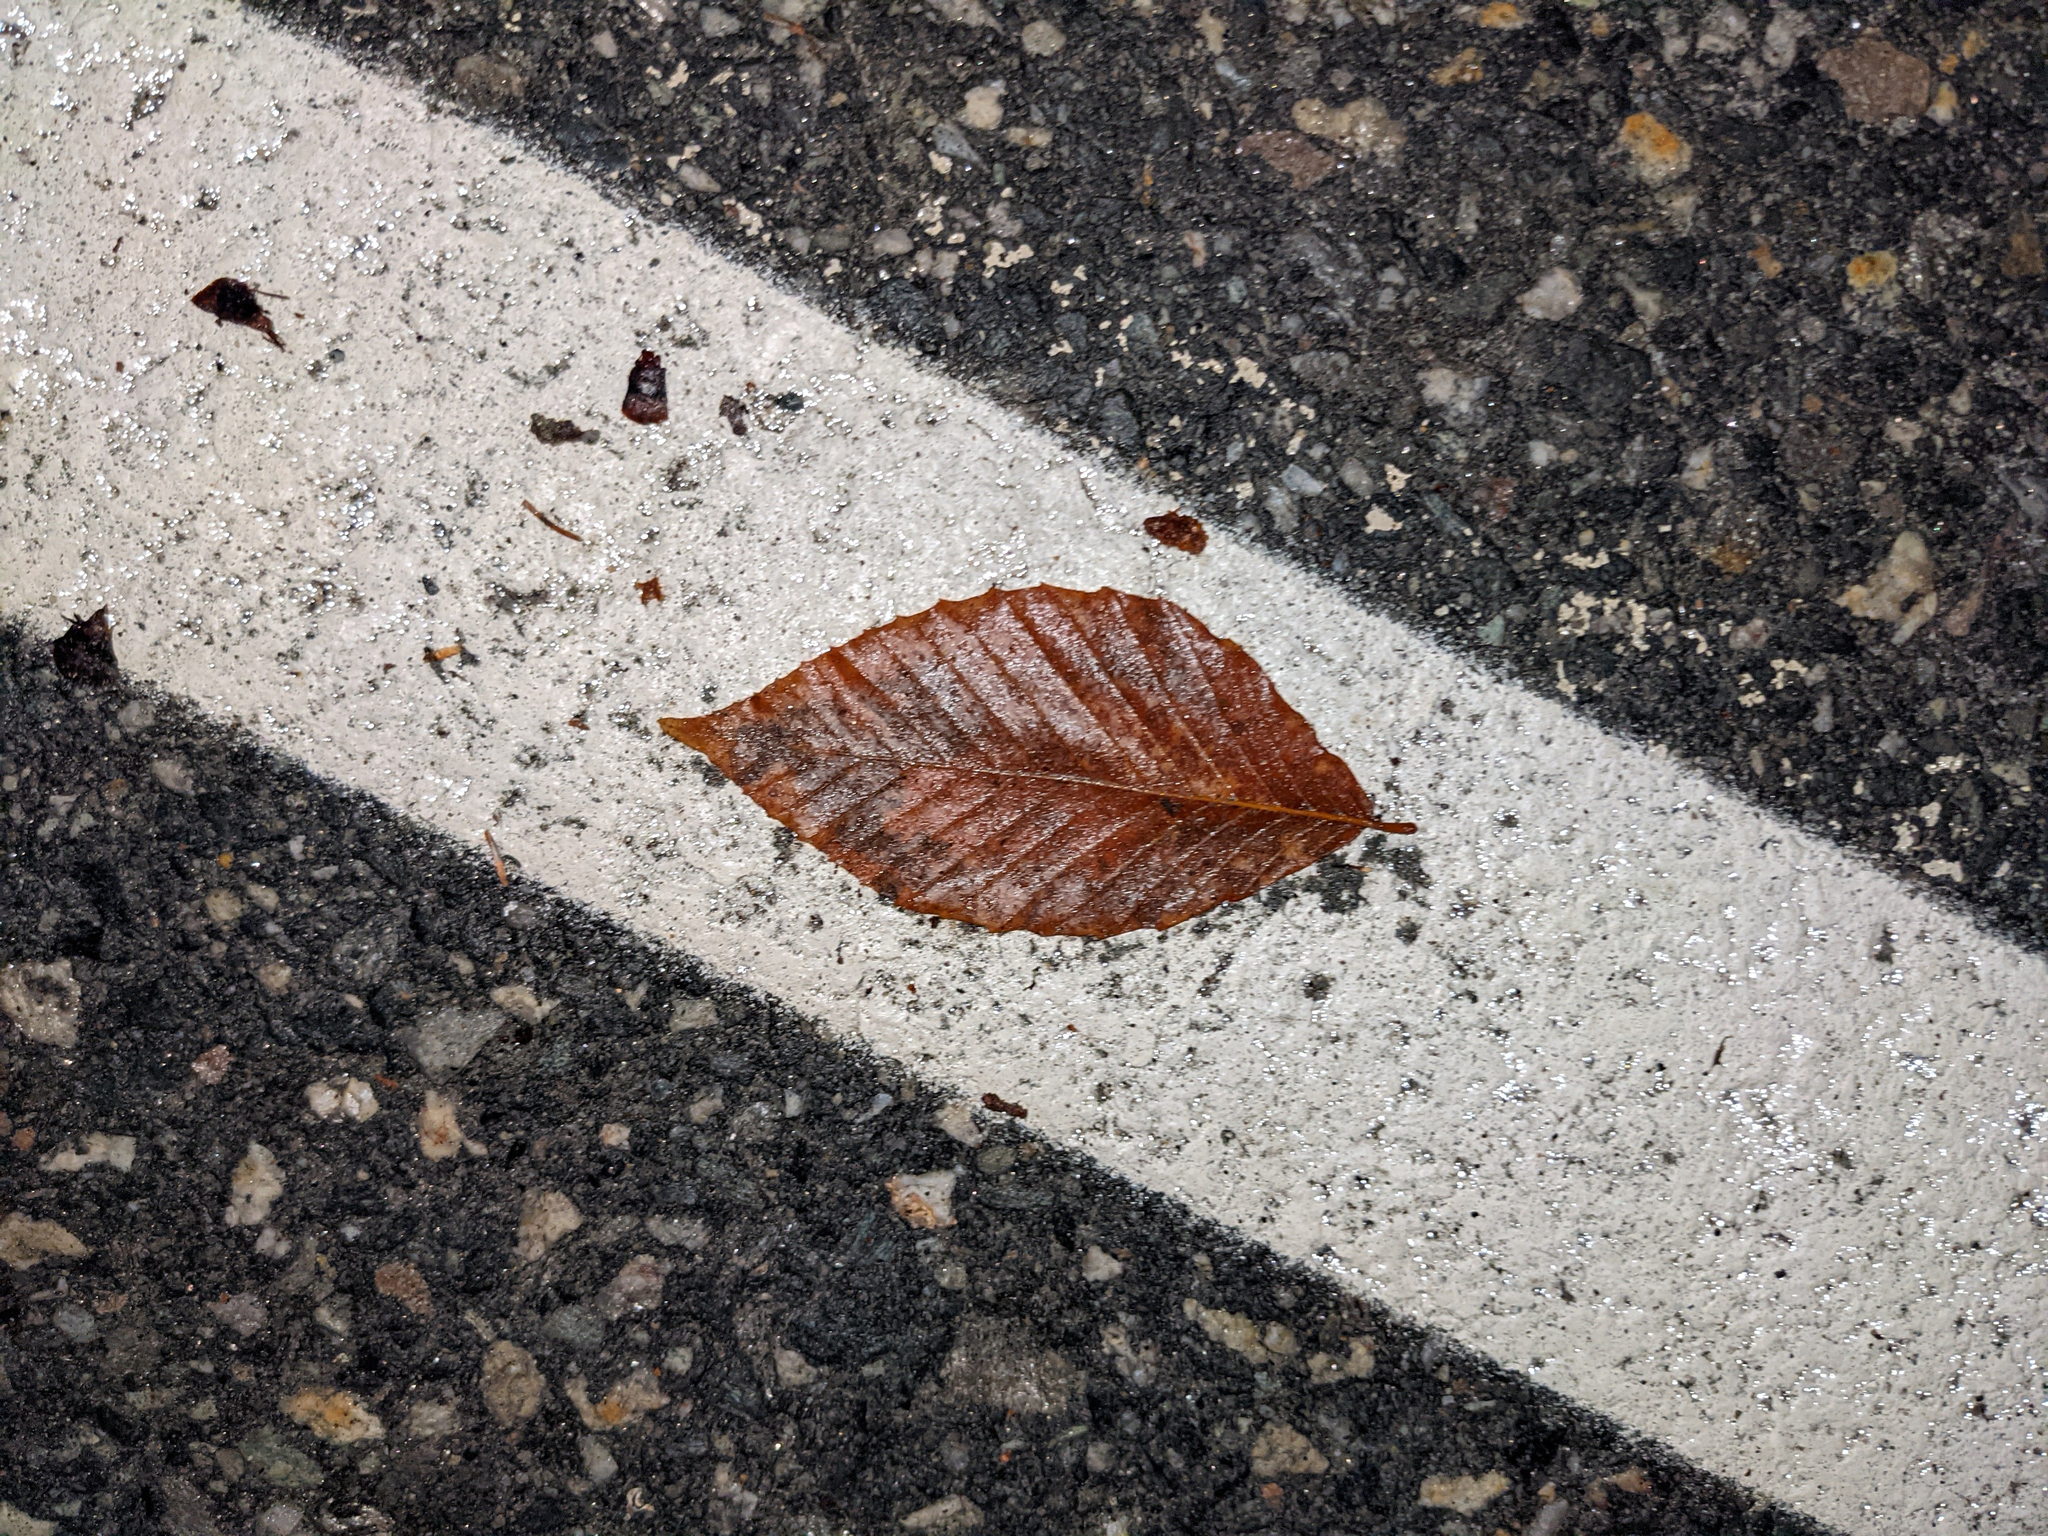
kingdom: Plantae
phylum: Tracheophyta
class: Magnoliopsida
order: Fagales
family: Fagaceae
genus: Fagus
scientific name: Fagus grandifolia
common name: American beech
